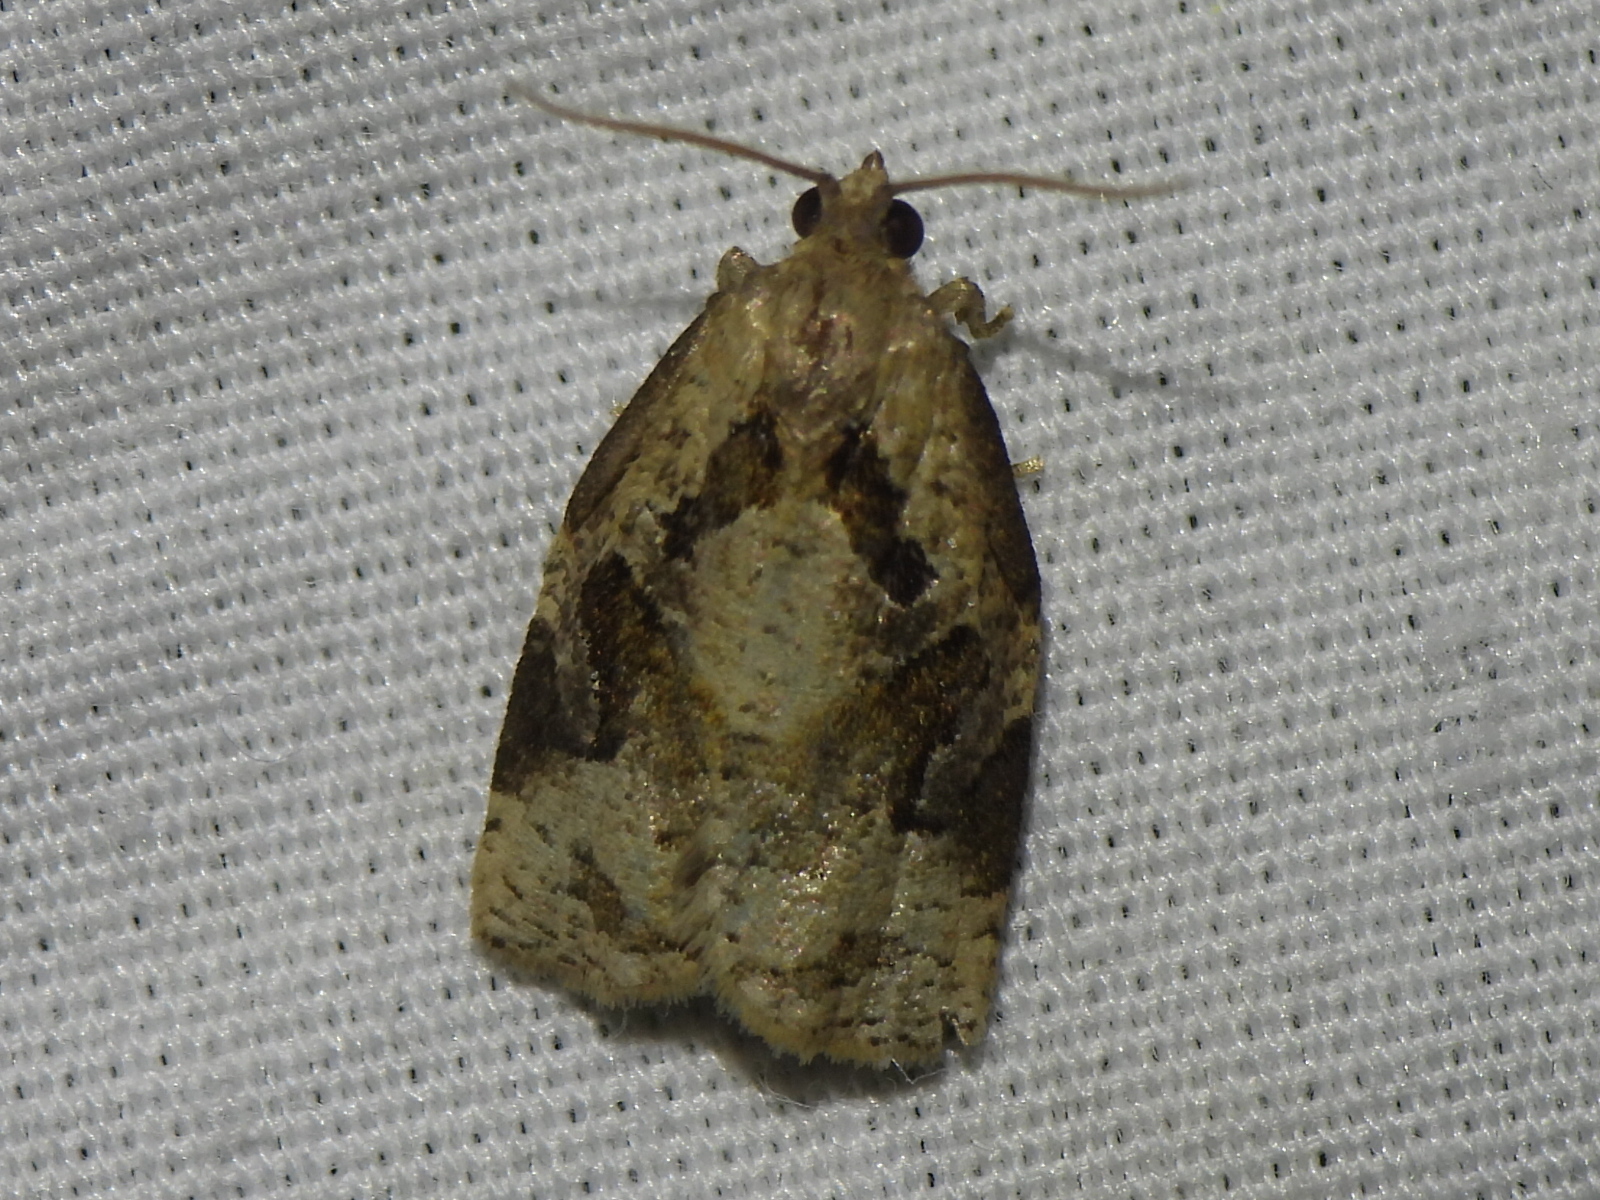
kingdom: Animalia
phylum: Arthropoda
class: Insecta
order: Lepidoptera
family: Tortricidae
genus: Archips
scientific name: Archips grisea
